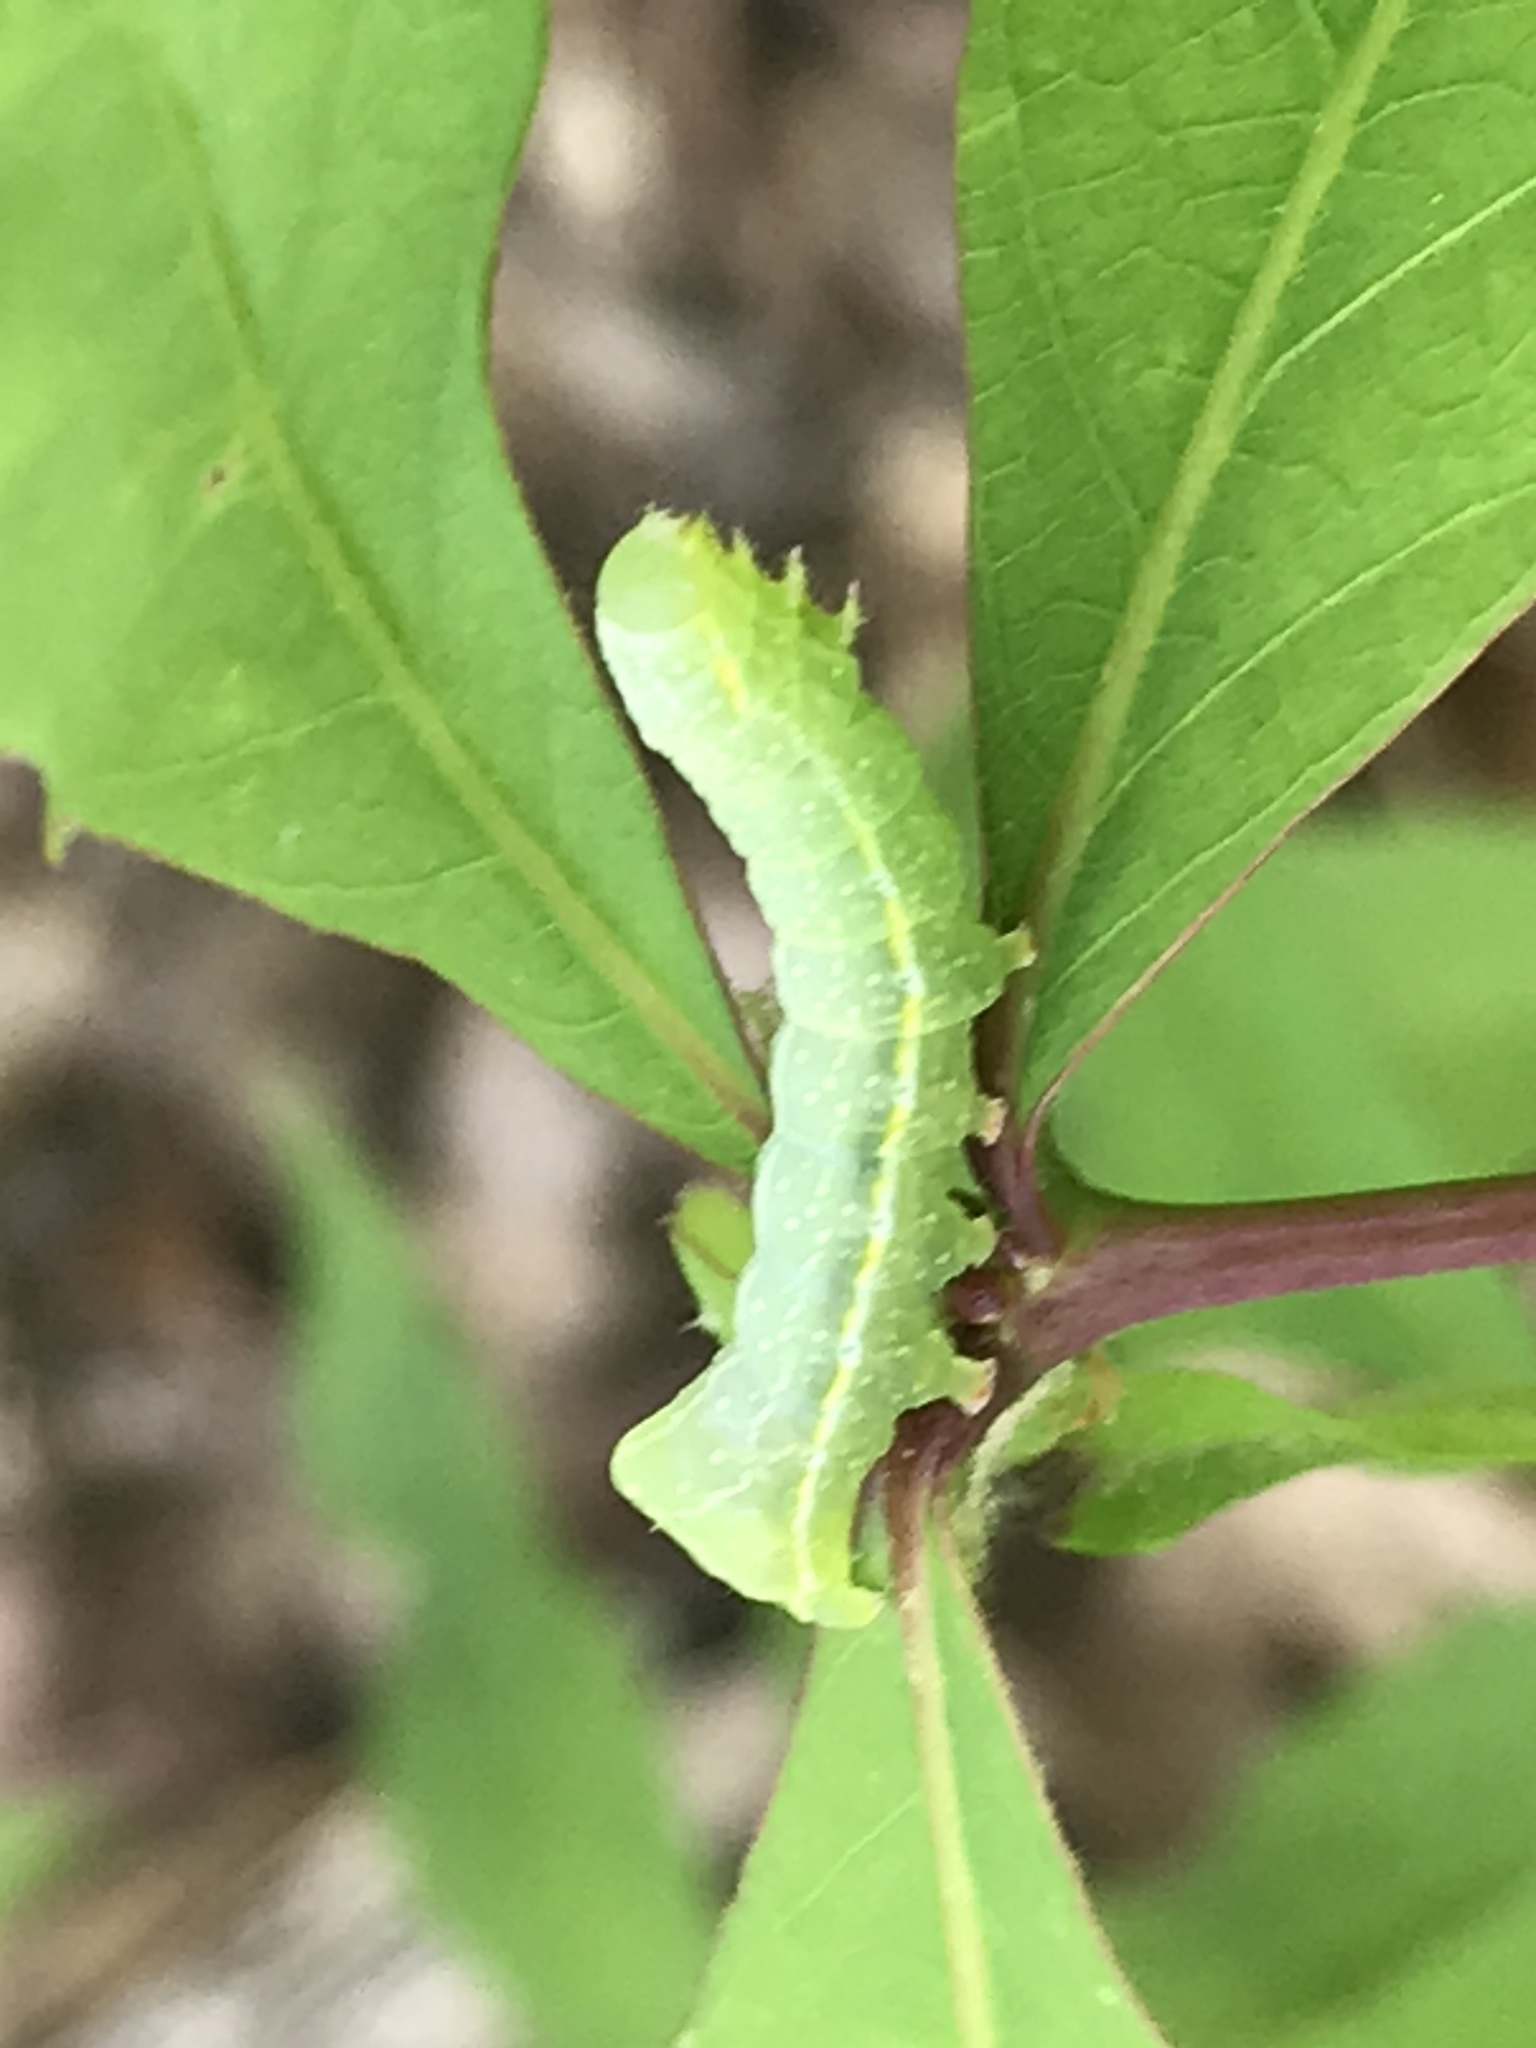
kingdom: Animalia
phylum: Arthropoda
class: Insecta
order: Lepidoptera
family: Noctuidae
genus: Amphipyra
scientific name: Amphipyra pyramidoides
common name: American copper underwing
